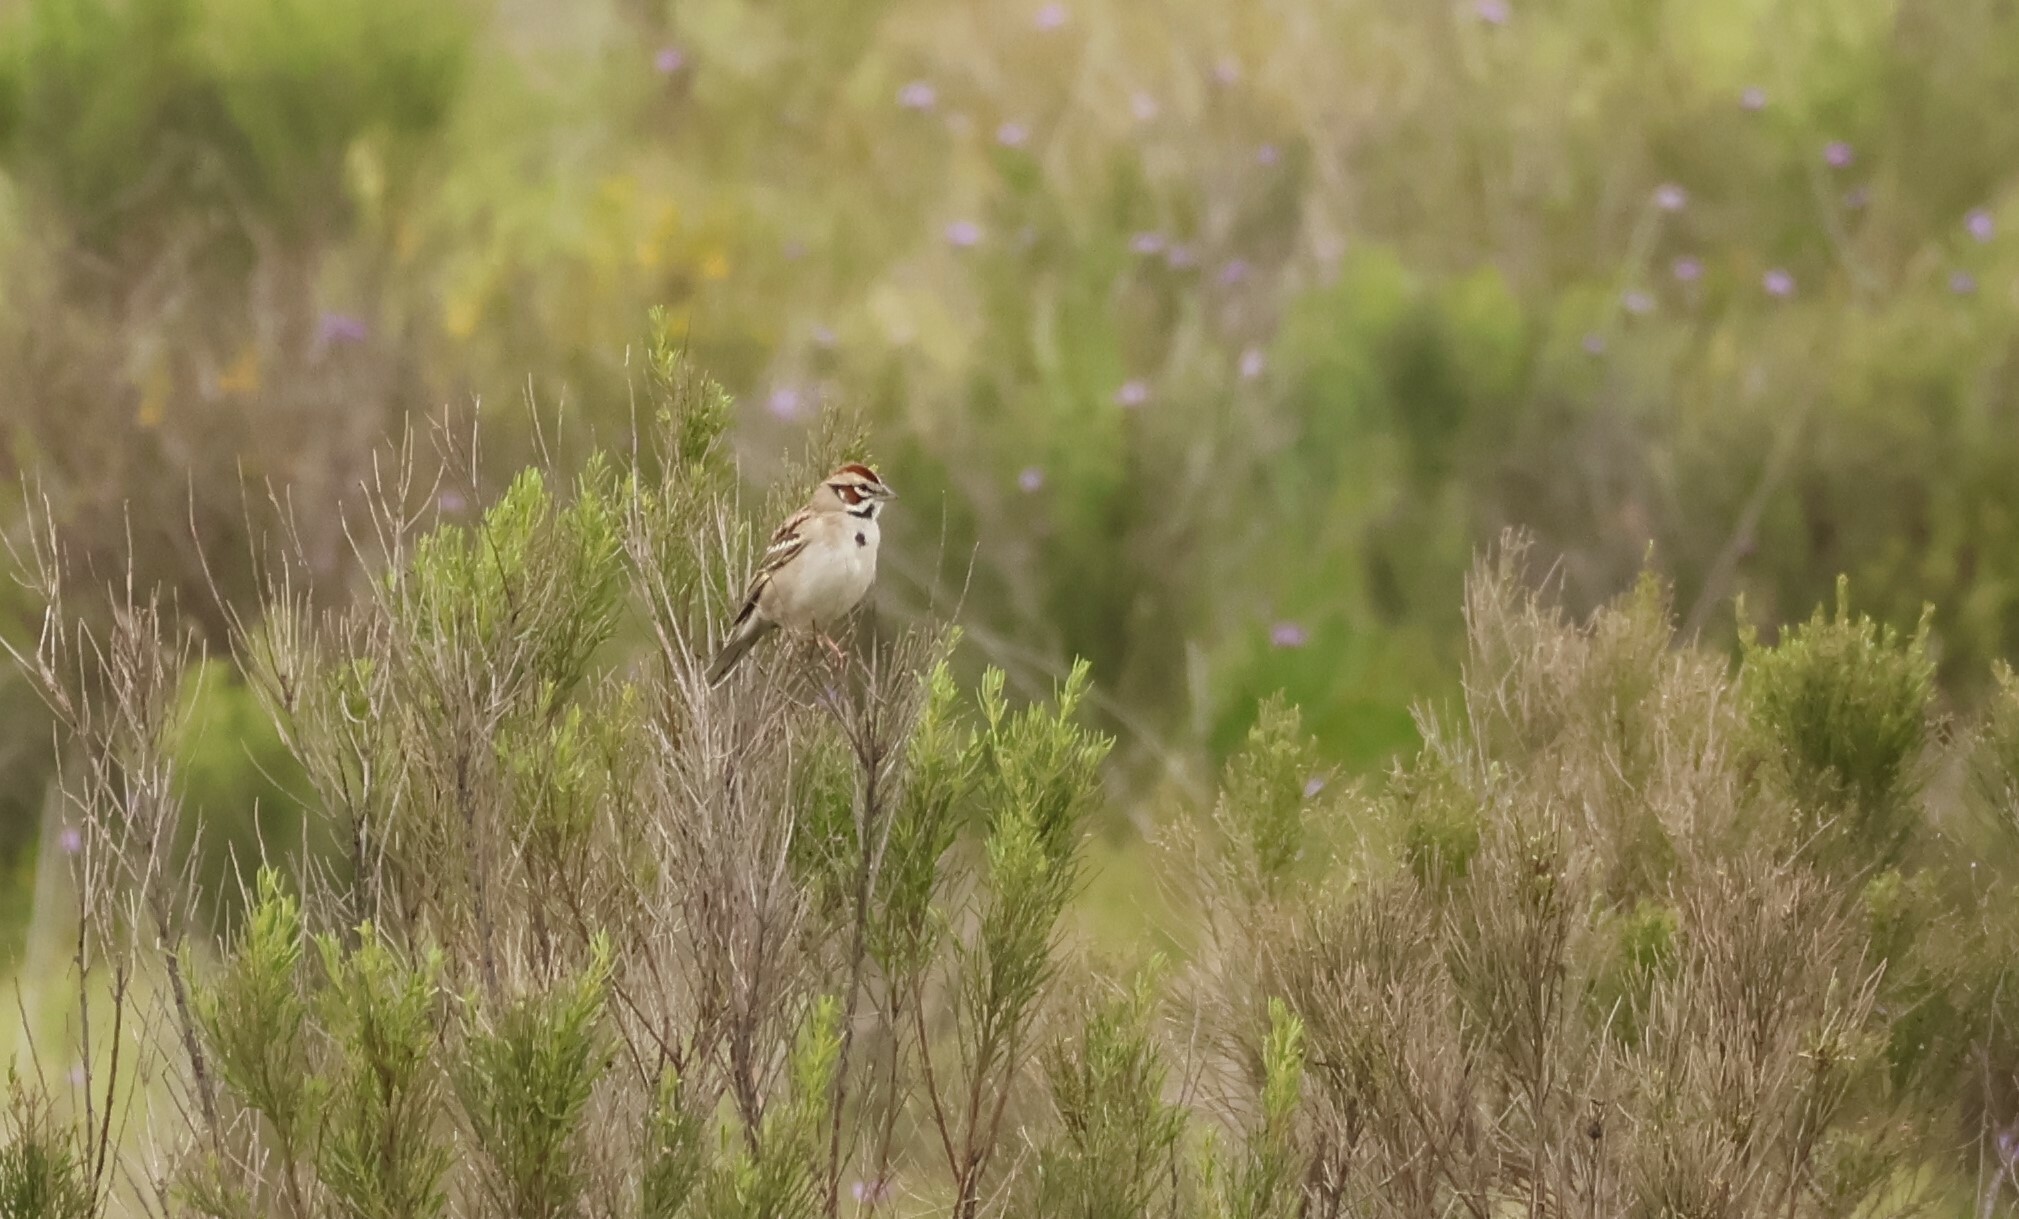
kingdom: Animalia
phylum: Chordata
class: Aves
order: Passeriformes
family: Passerellidae
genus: Chondestes
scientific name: Chondestes grammacus
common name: Lark sparrow
